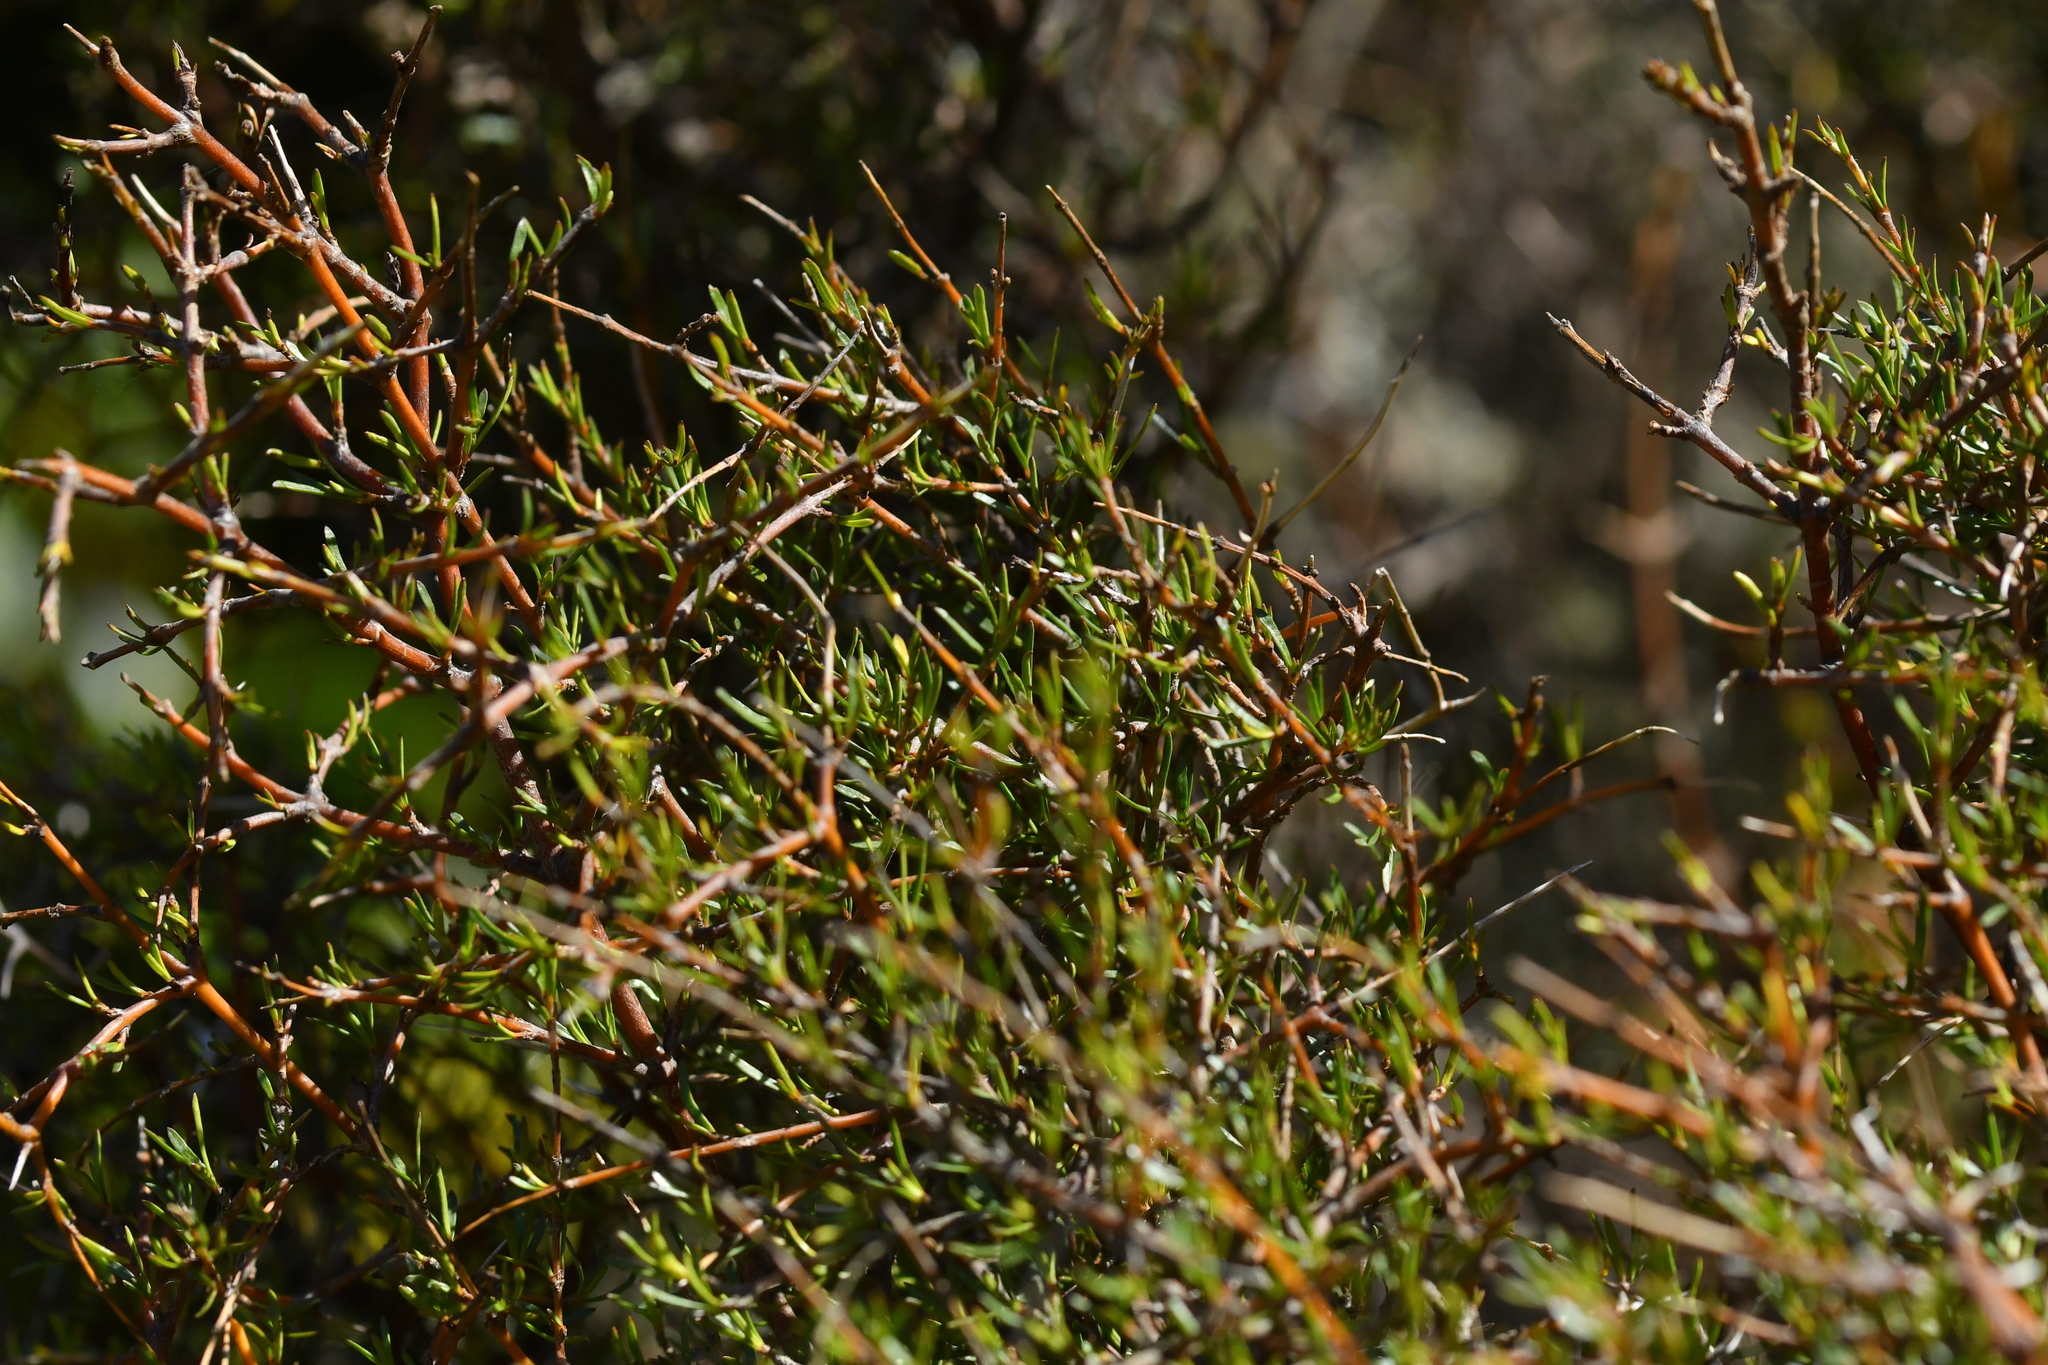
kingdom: Plantae
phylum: Tracheophyta
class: Magnoliopsida
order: Gentianales
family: Rubiaceae
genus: Coprosma
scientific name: Coprosma rugosa
